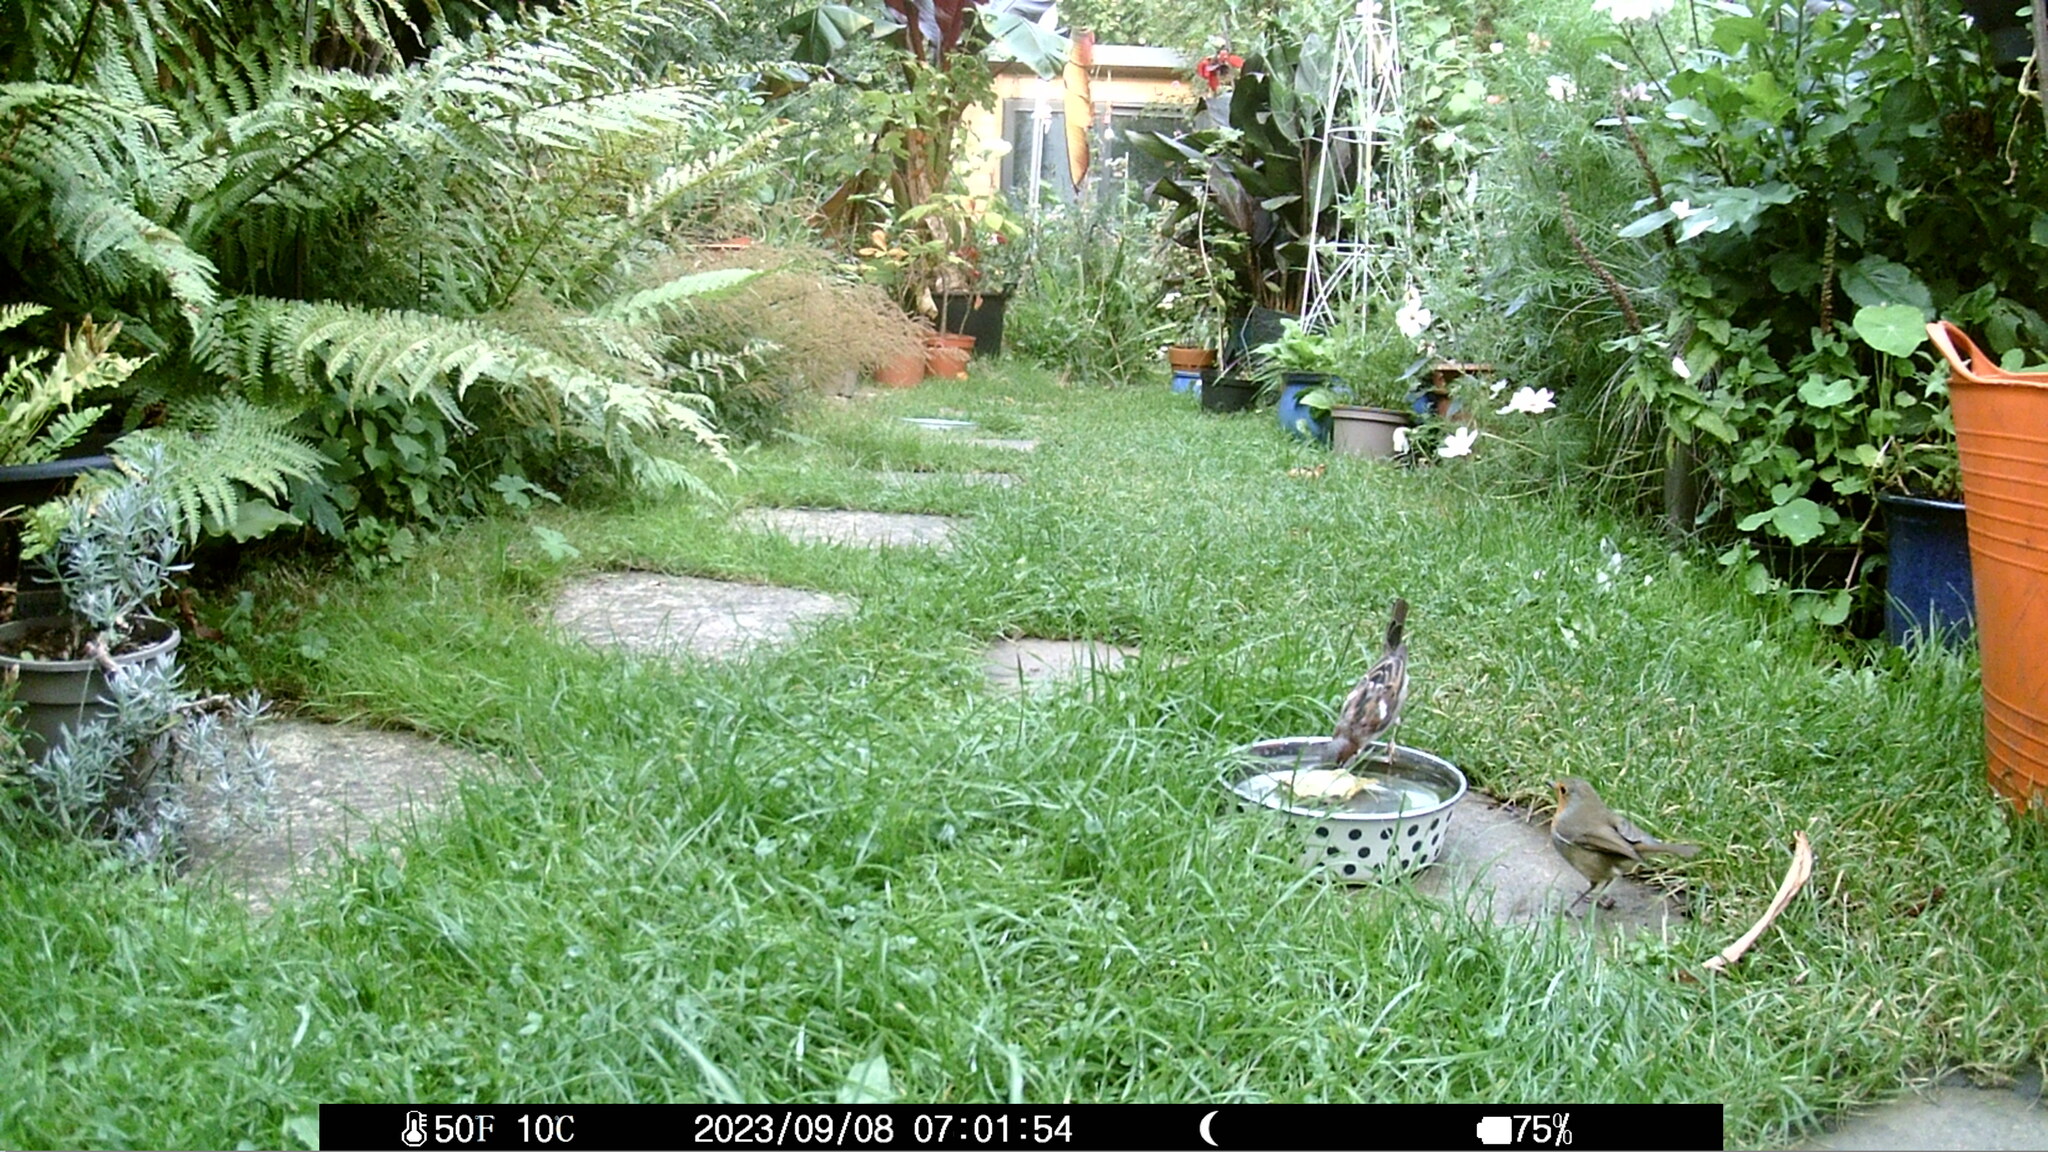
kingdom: Animalia
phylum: Chordata
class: Aves
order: Passeriformes
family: Passeridae
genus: Passer
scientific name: Passer domesticus
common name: House sparrow
